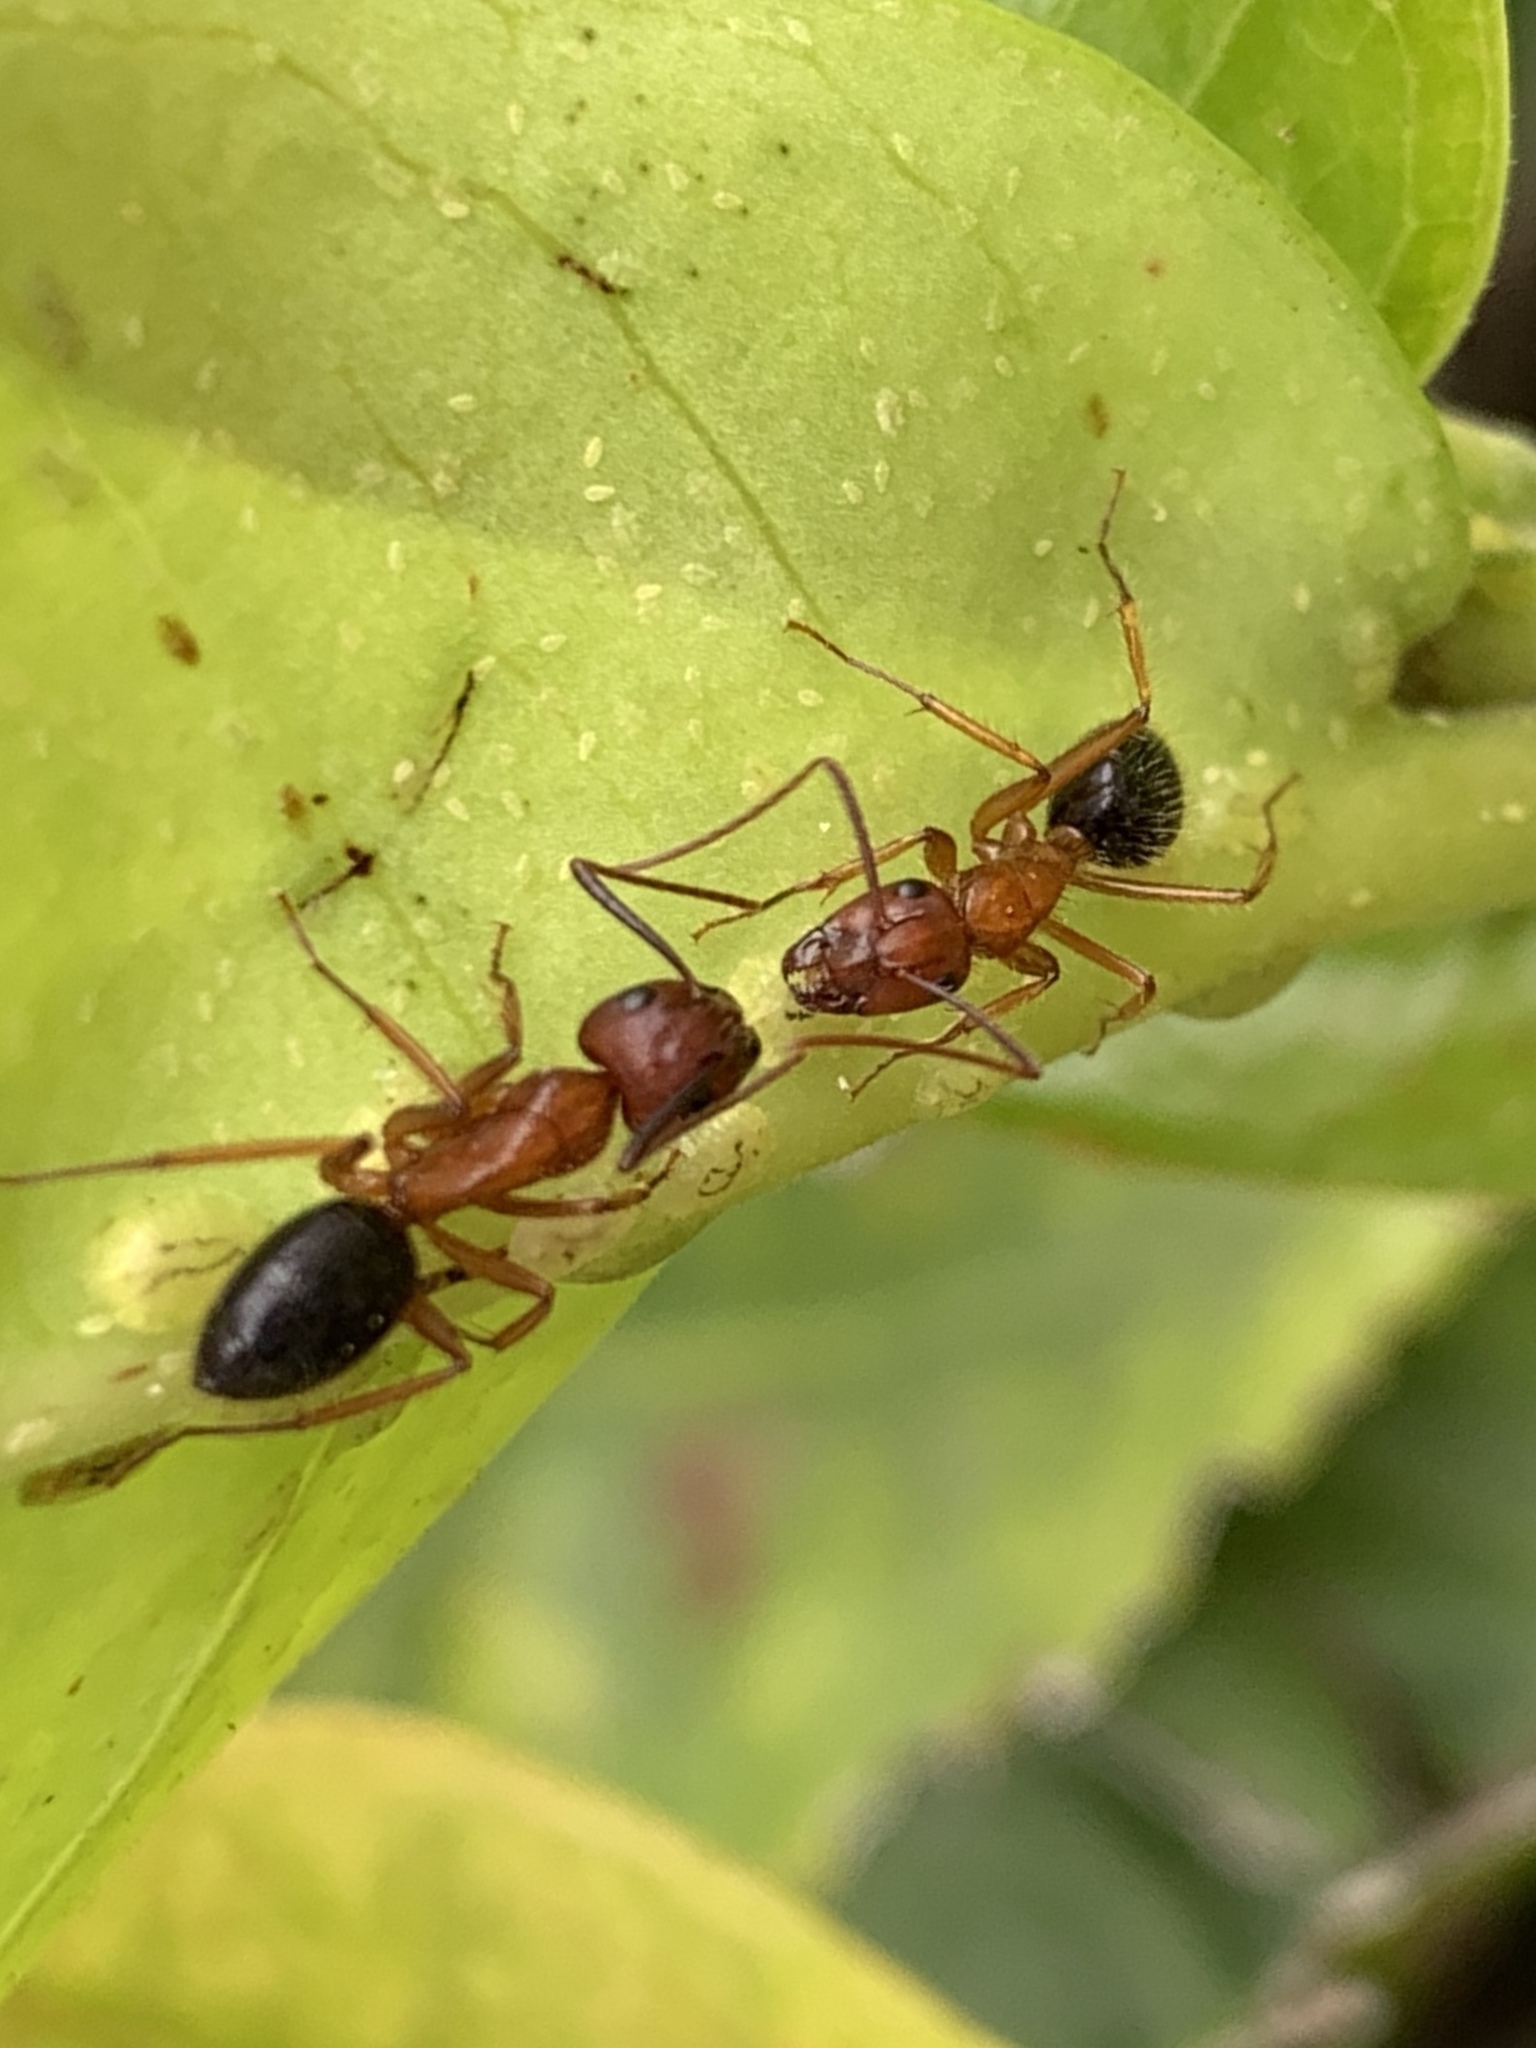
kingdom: Animalia
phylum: Arthropoda
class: Insecta
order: Hymenoptera
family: Formicidae
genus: Camponotus
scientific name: Camponotus floridanus
